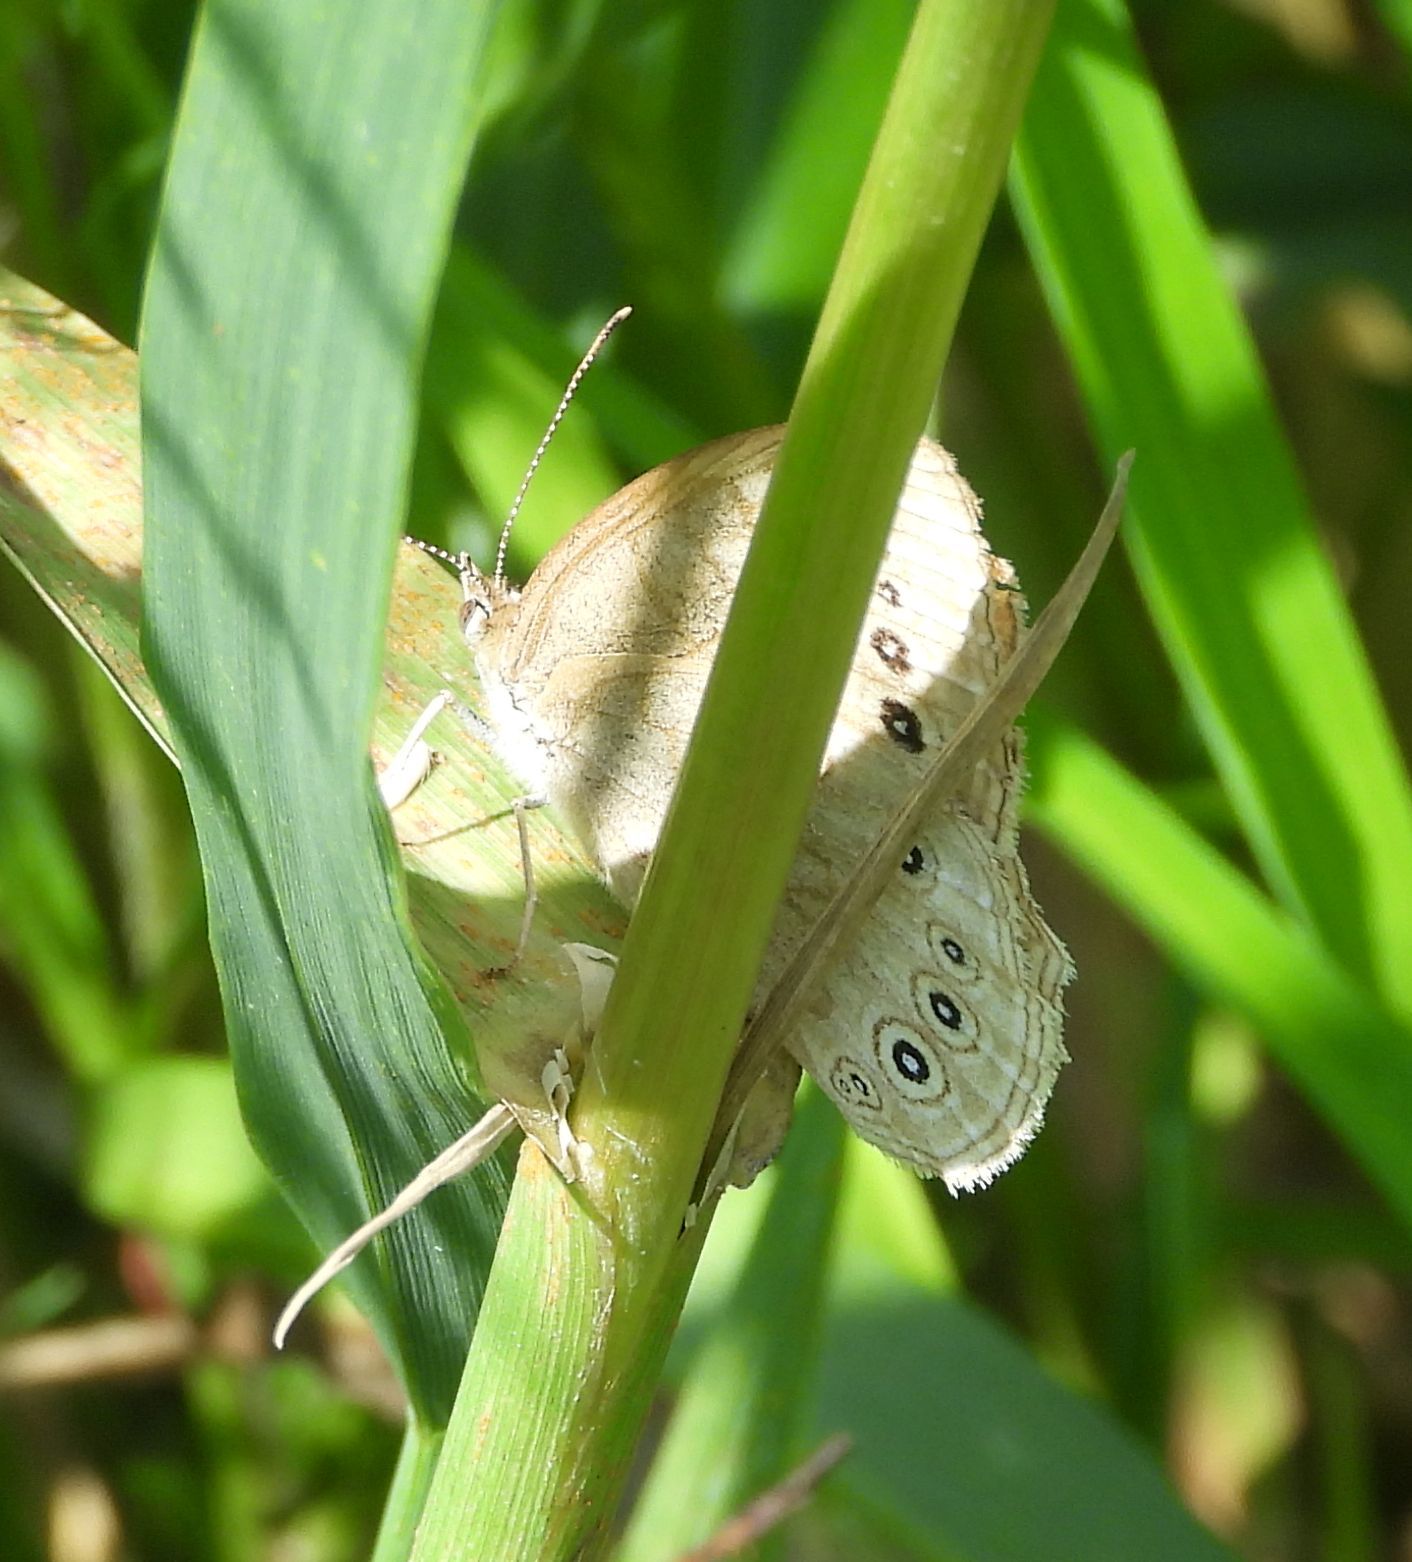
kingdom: Animalia
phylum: Arthropoda
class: Insecta
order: Lepidoptera
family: Nymphalidae
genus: Lethe
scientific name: Lethe eurydice
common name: Eyed brown
